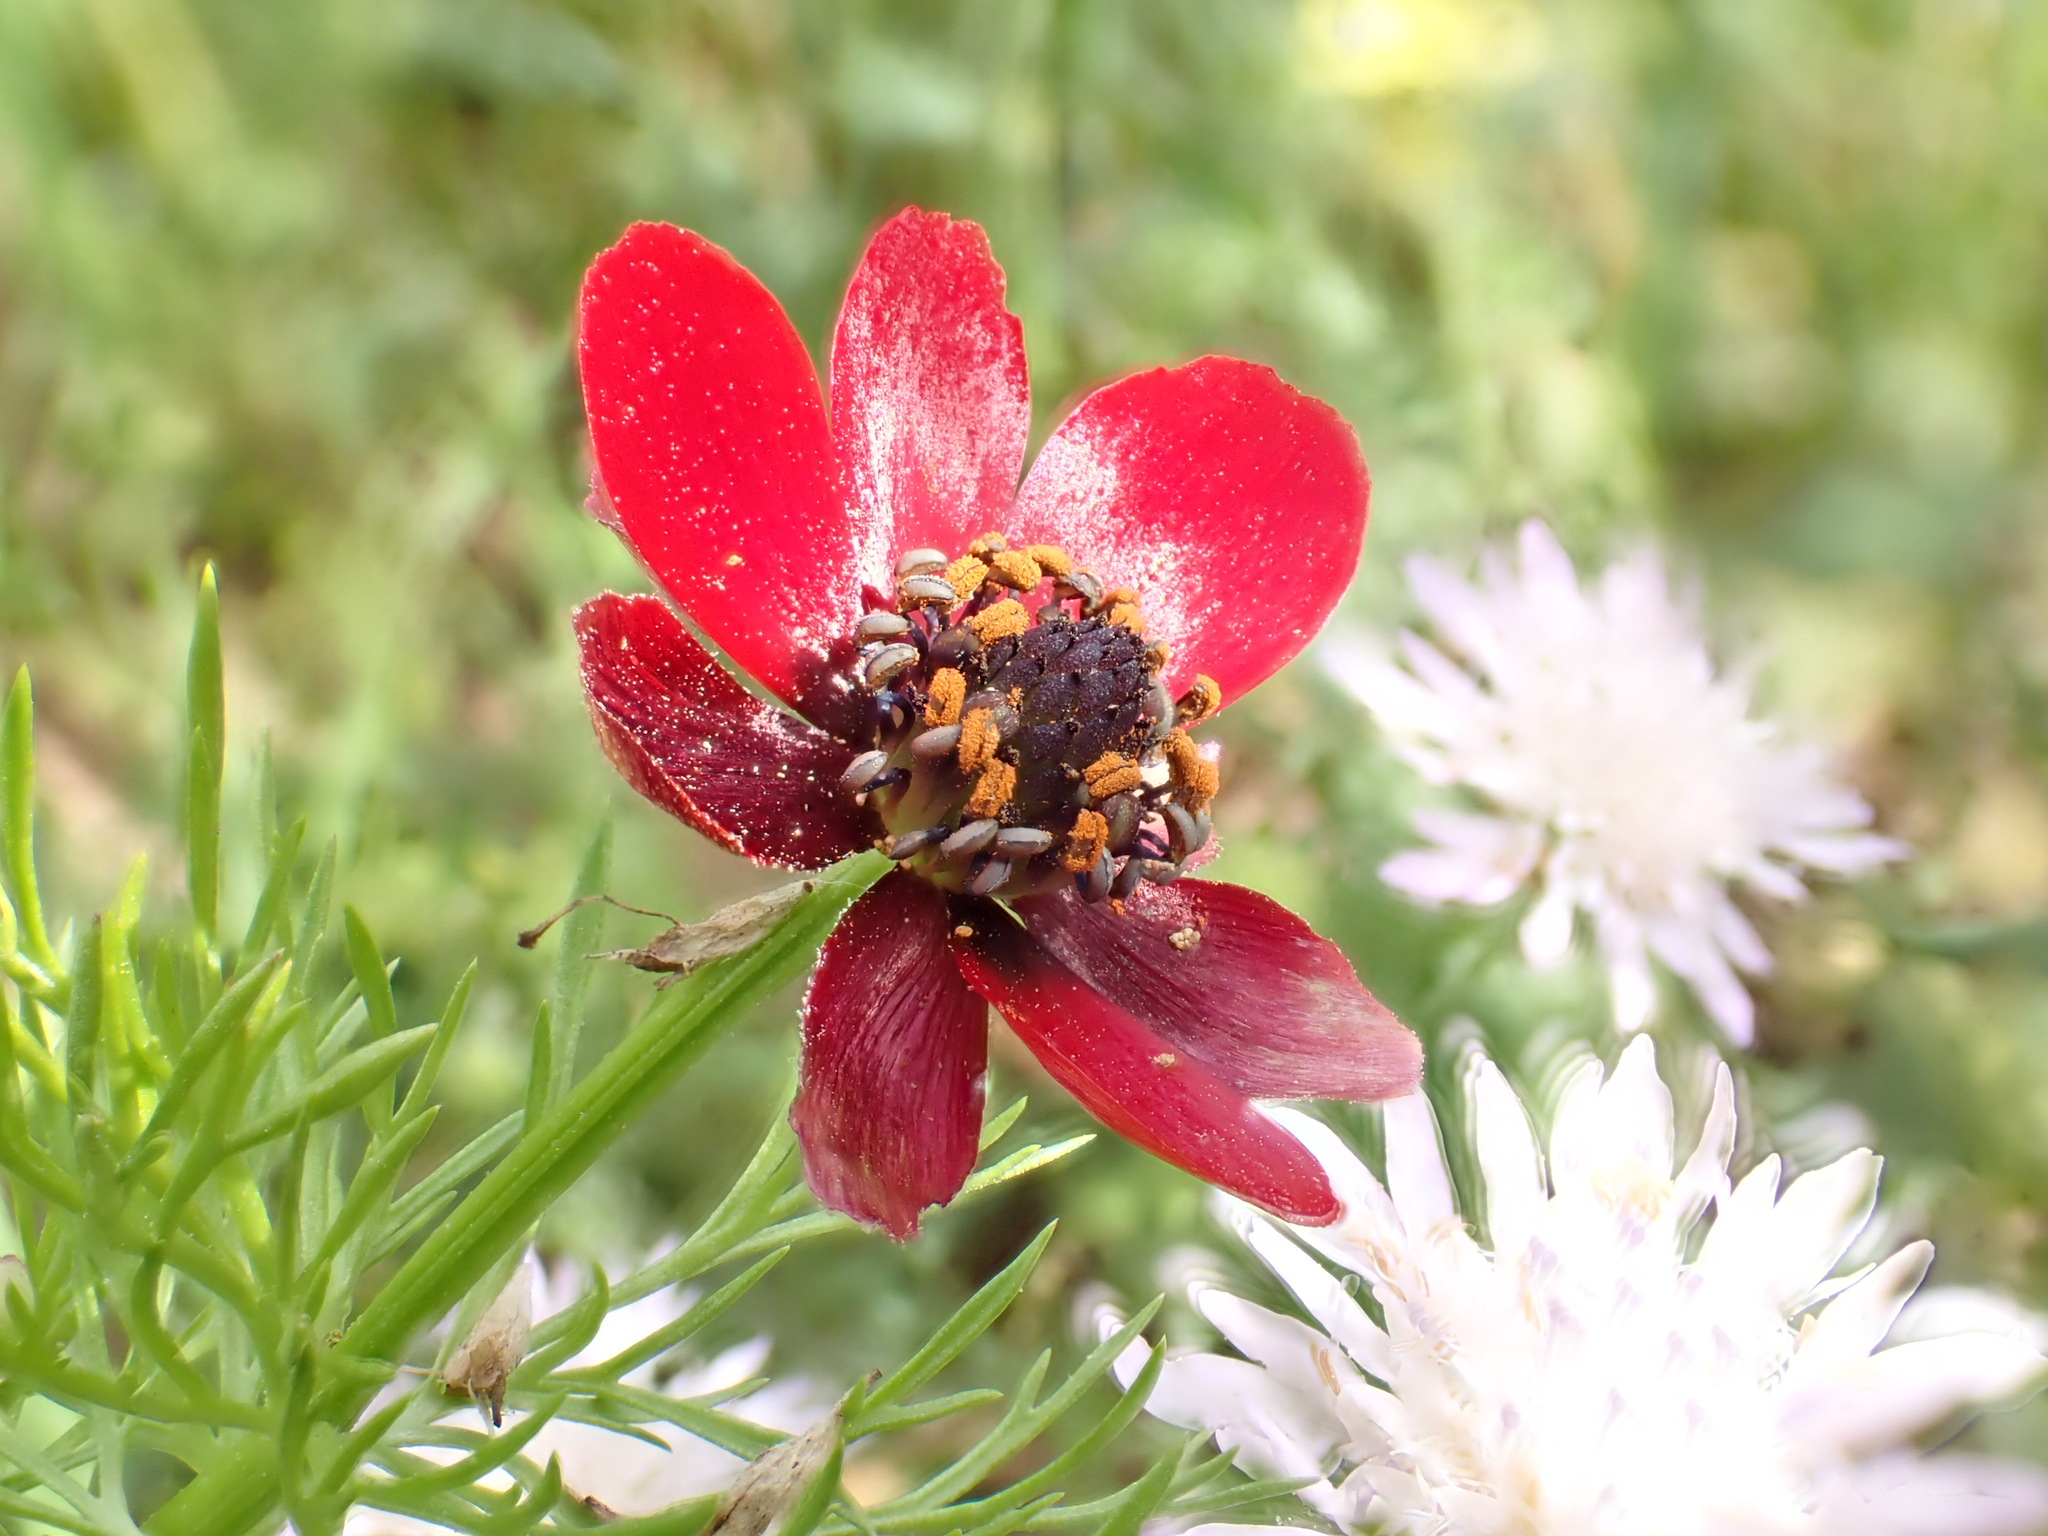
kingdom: Plantae
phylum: Tracheophyta
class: Magnoliopsida
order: Ranunculales
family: Ranunculaceae
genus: Adonis
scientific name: Adonis annua
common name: Pheasant's-eye
